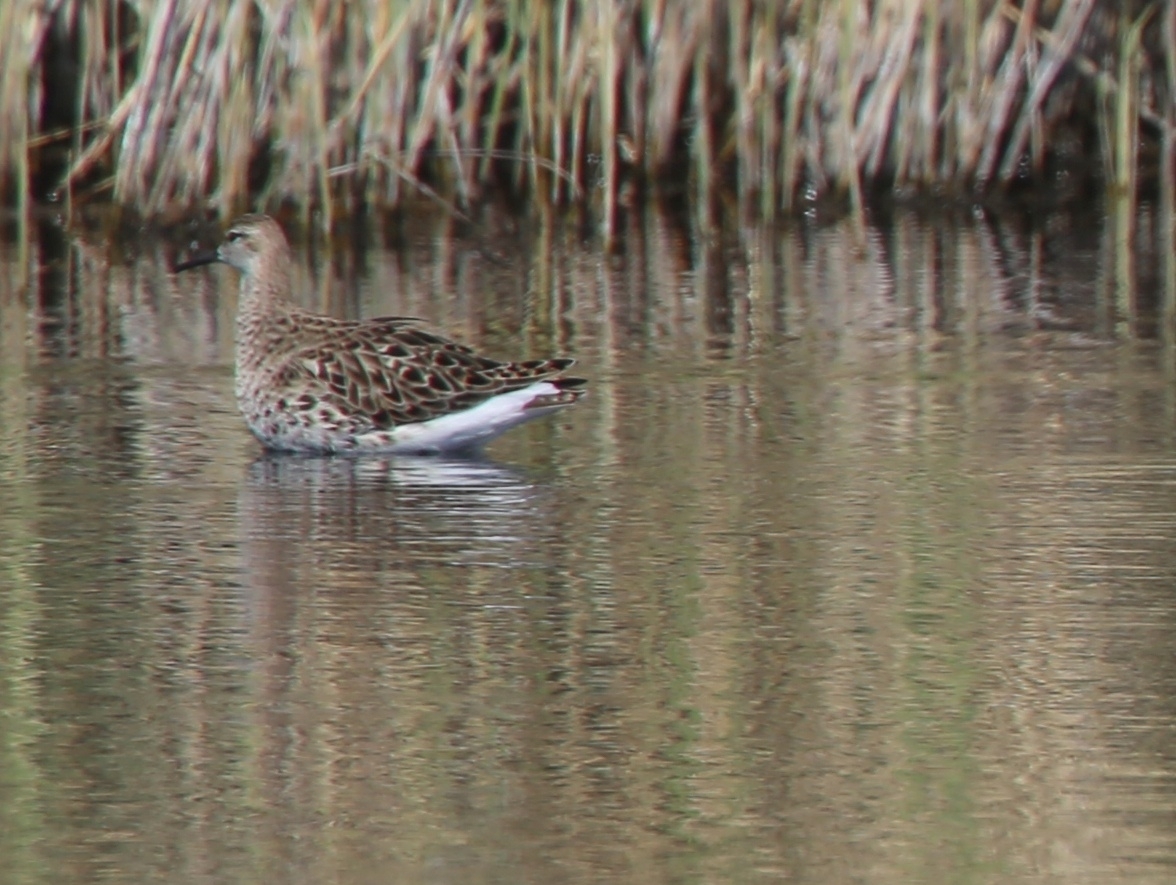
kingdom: Animalia
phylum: Chordata
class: Aves
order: Charadriiformes
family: Scolopacidae
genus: Calidris
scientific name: Calidris pugnax
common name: Ruff
